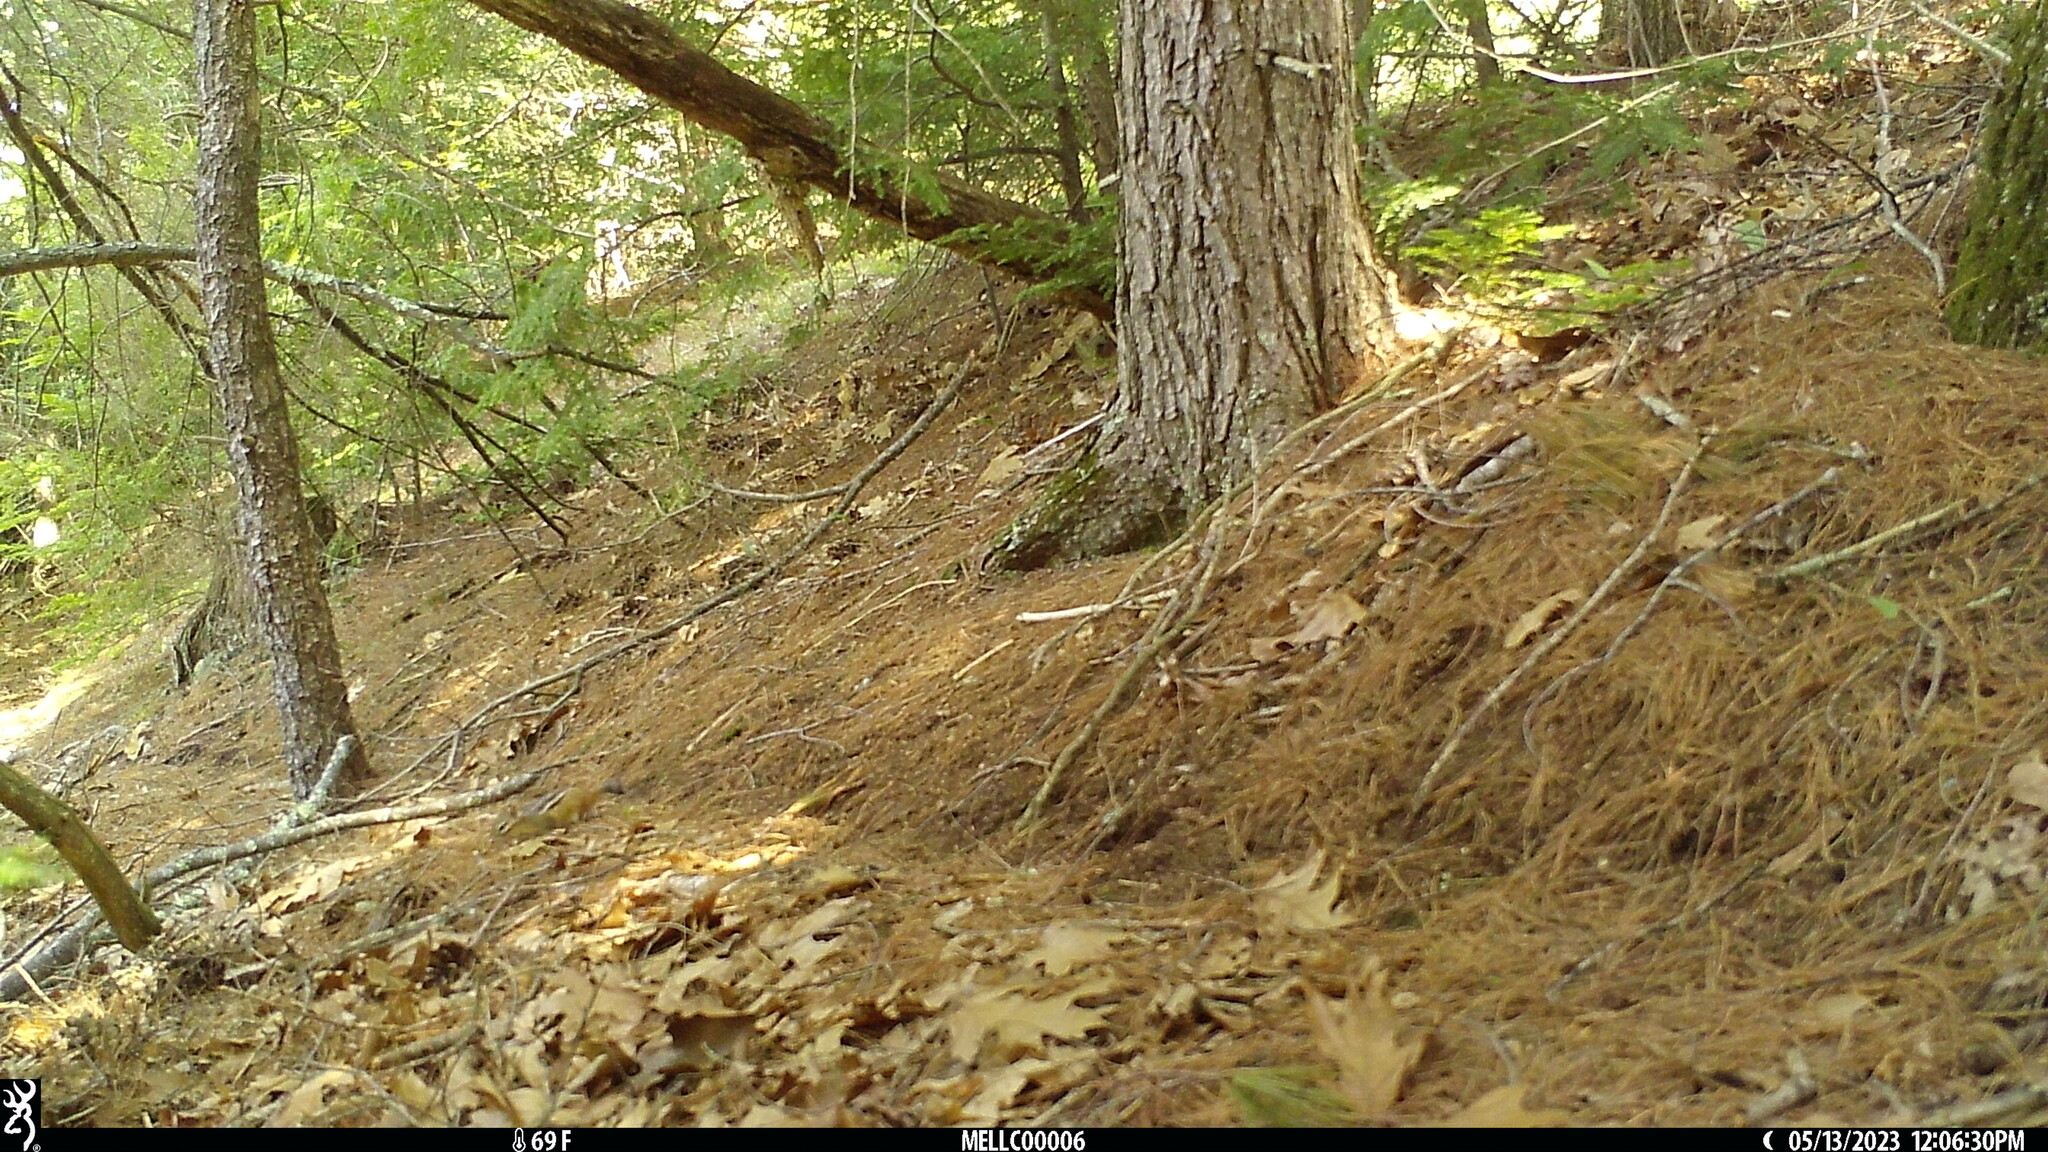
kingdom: Animalia
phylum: Chordata
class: Mammalia
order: Rodentia
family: Sciuridae
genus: Tamias
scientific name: Tamias striatus
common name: Eastern chipmunk
